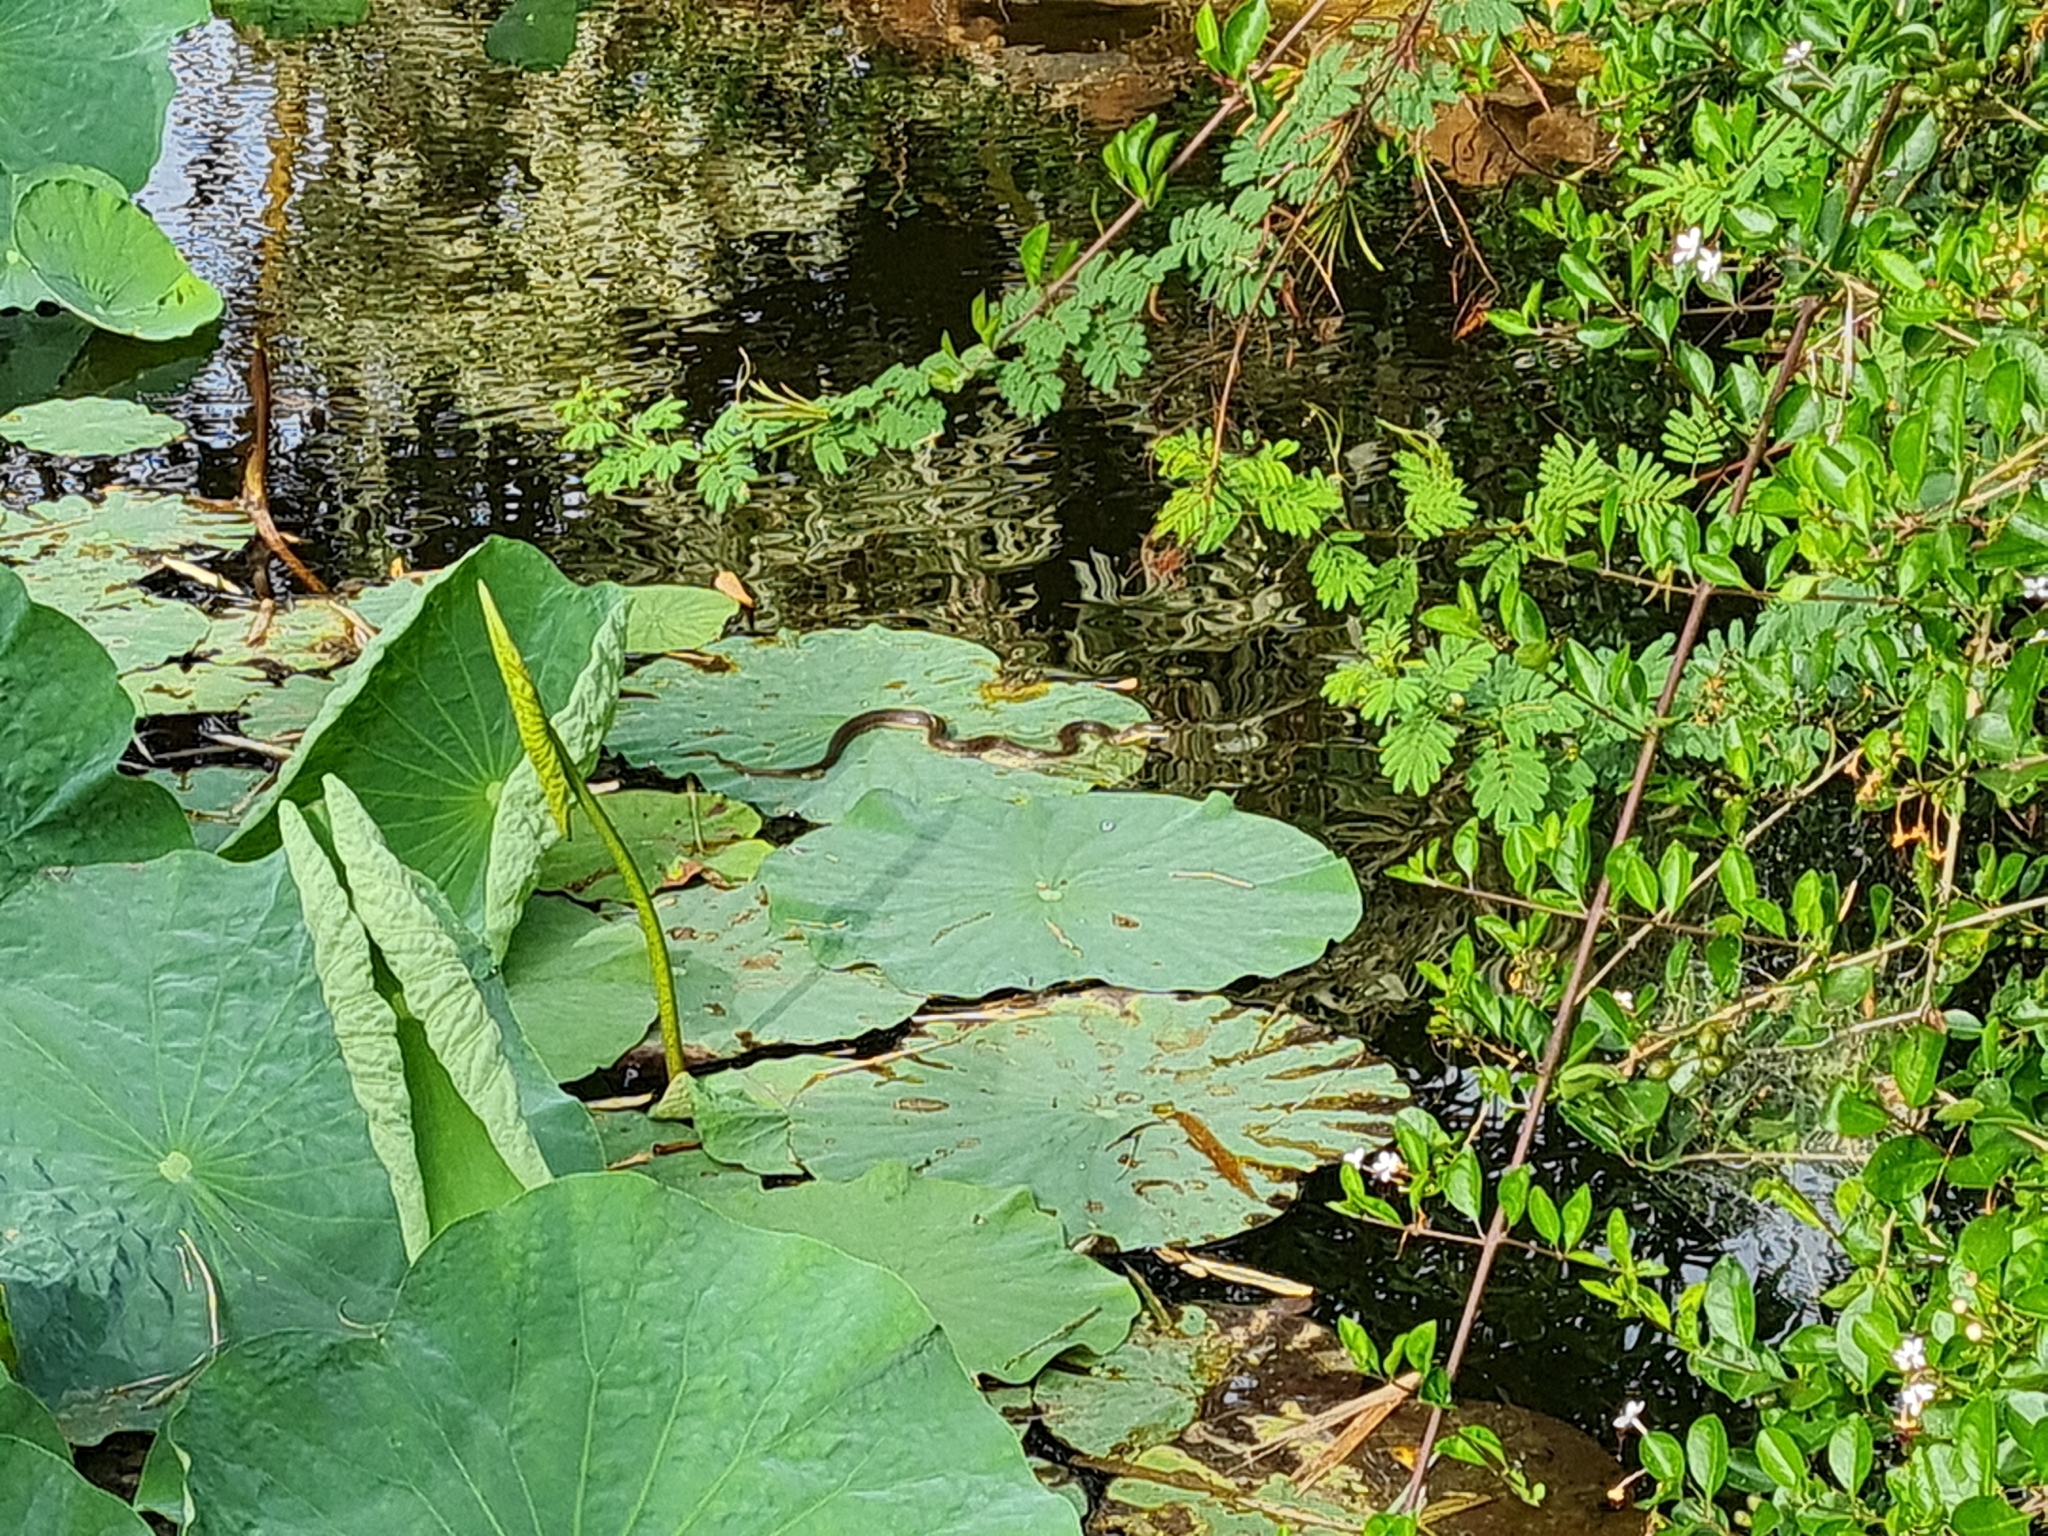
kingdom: Animalia
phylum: Chordata
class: Squamata
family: Colubridae
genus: Fowlea
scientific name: Fowlea piscator
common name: Asiatic water snake
